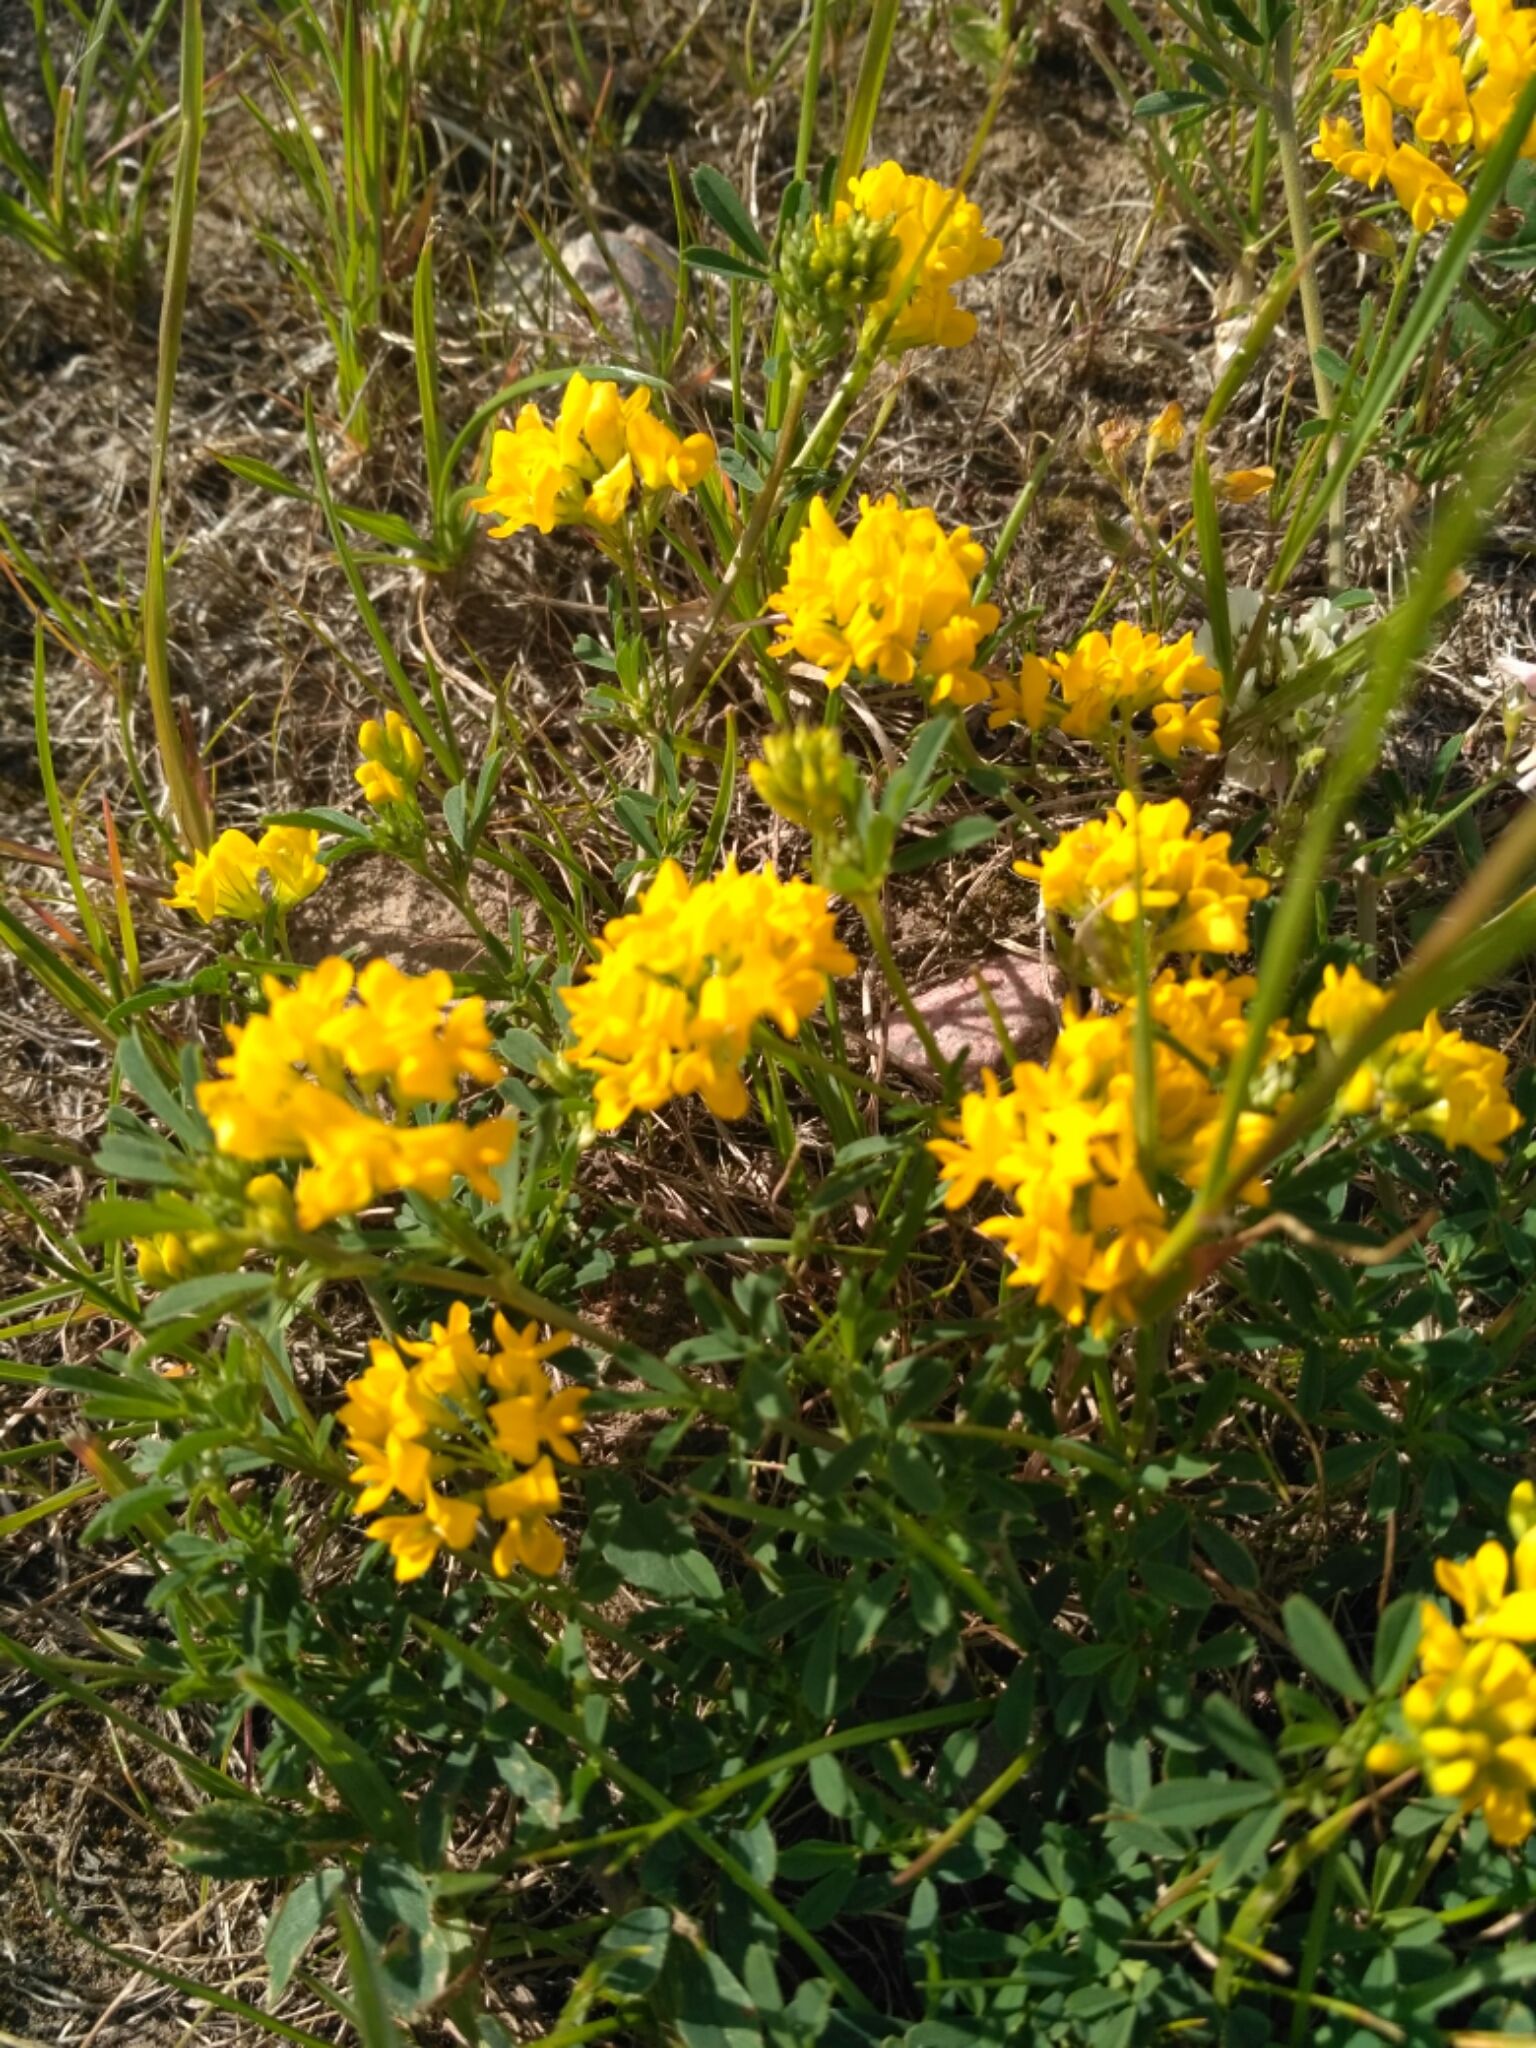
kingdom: Plantae
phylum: Tracheophyta
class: Magnoliopsida
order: Fabales
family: Fabaceae
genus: Medicago
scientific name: Medicago falcata
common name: Sickle medick
